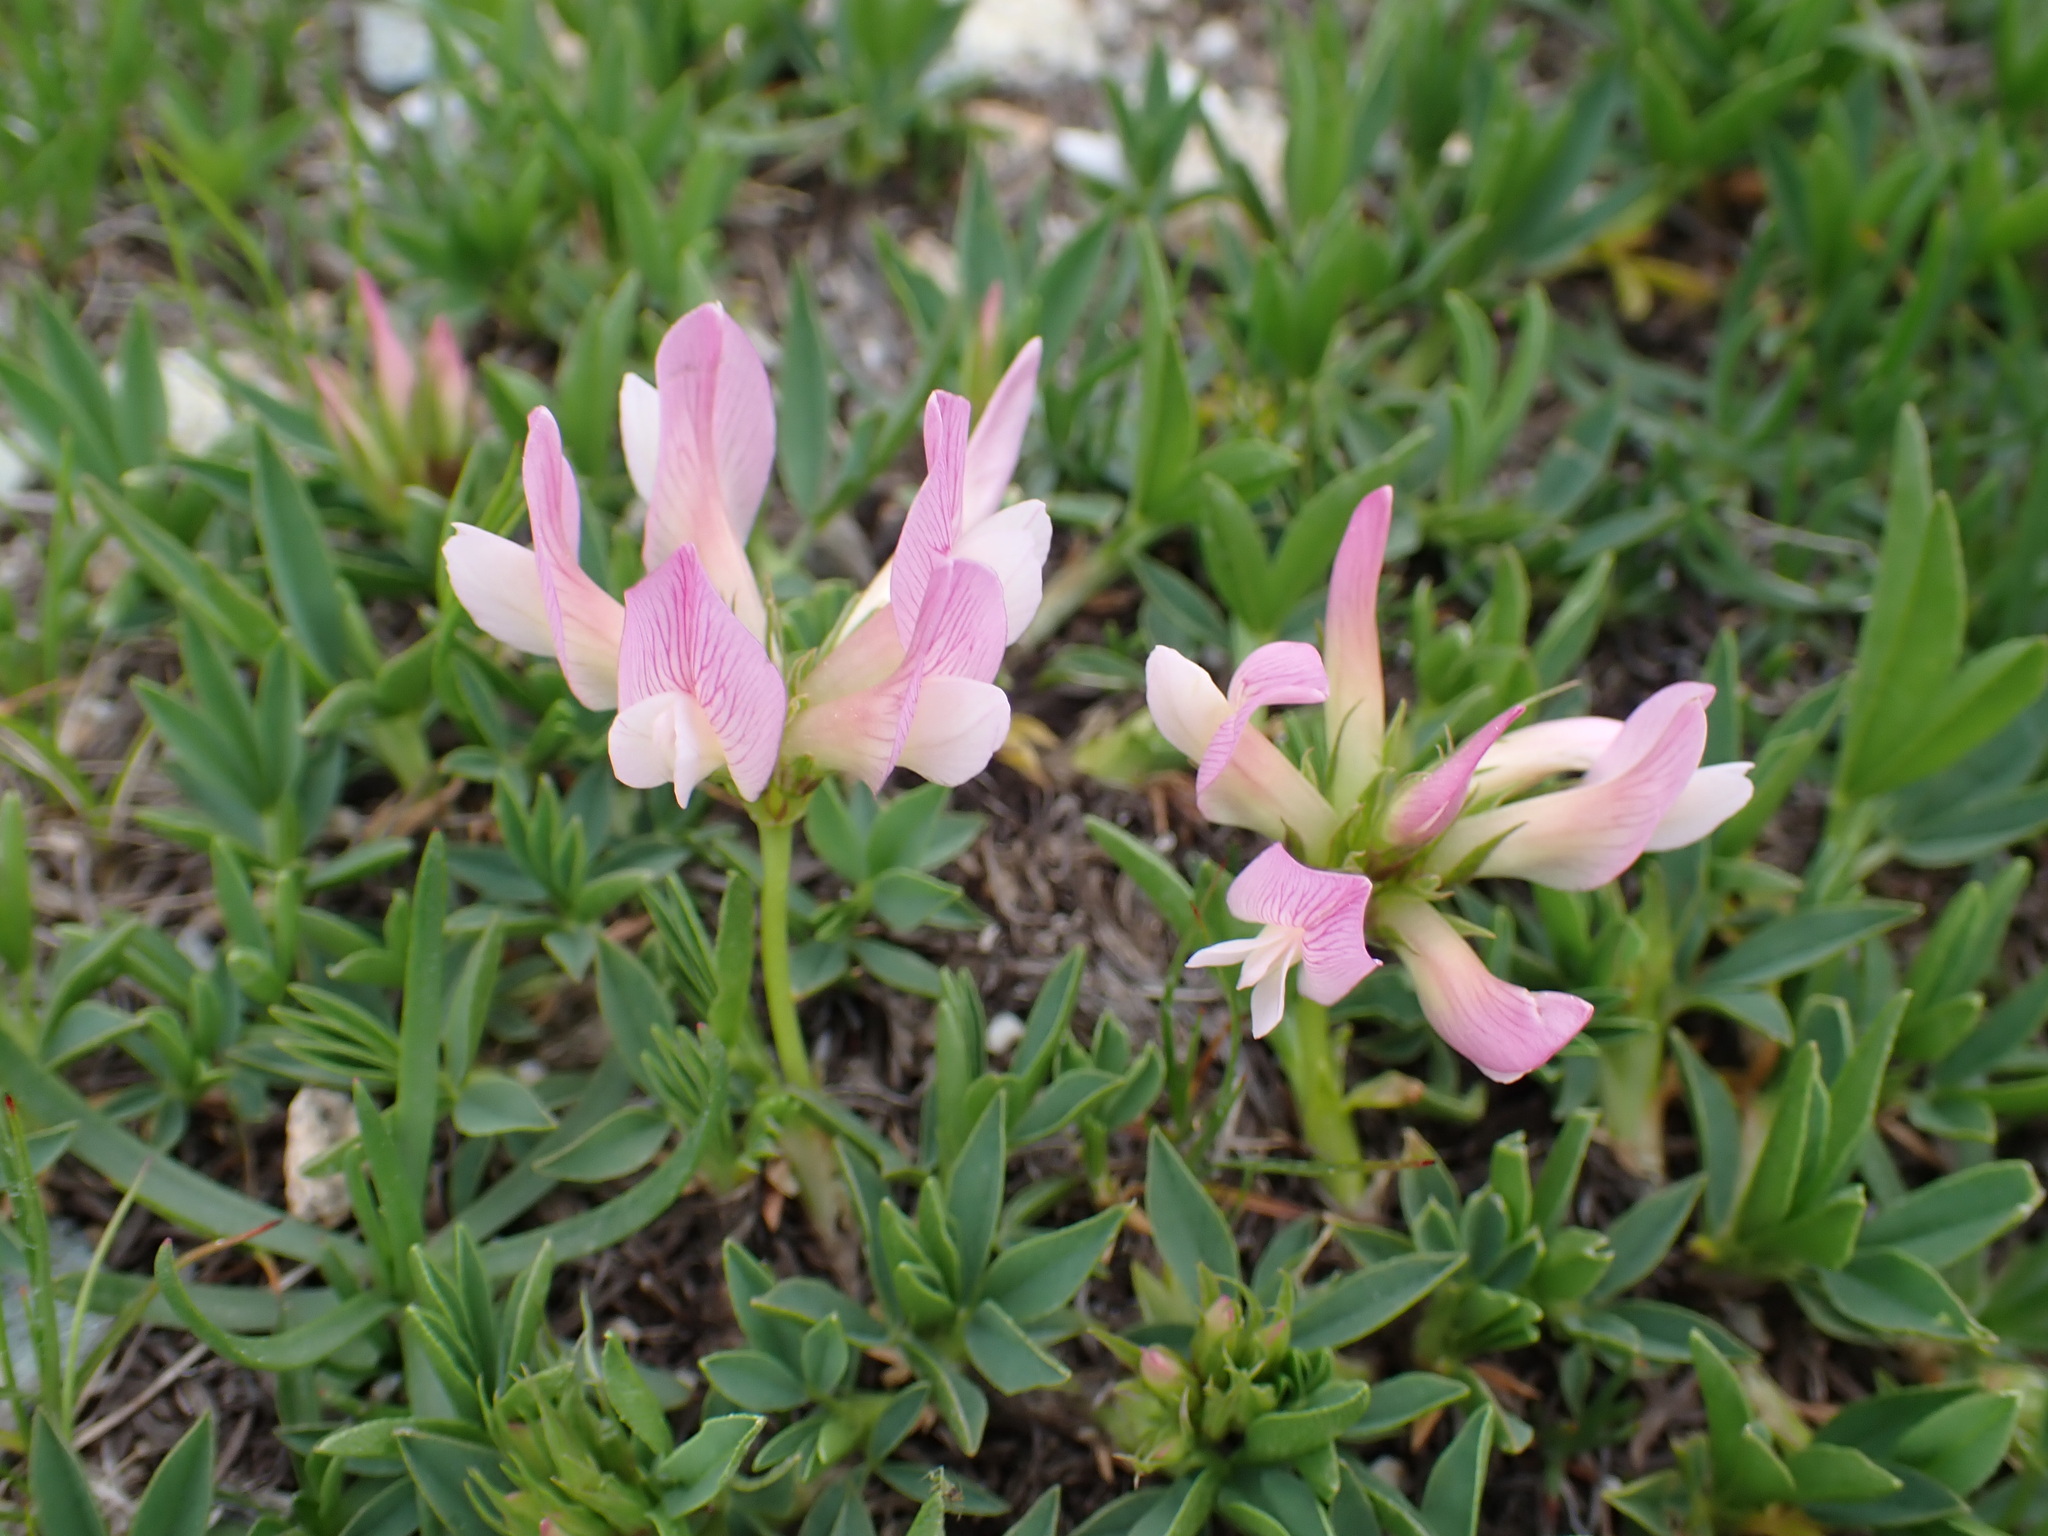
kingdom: Plantae
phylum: Tracheophyta
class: Magnoliopsida
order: Fabales
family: Fabaceae
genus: Trifolium
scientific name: Trifolium alpinum
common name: Alpine clover
